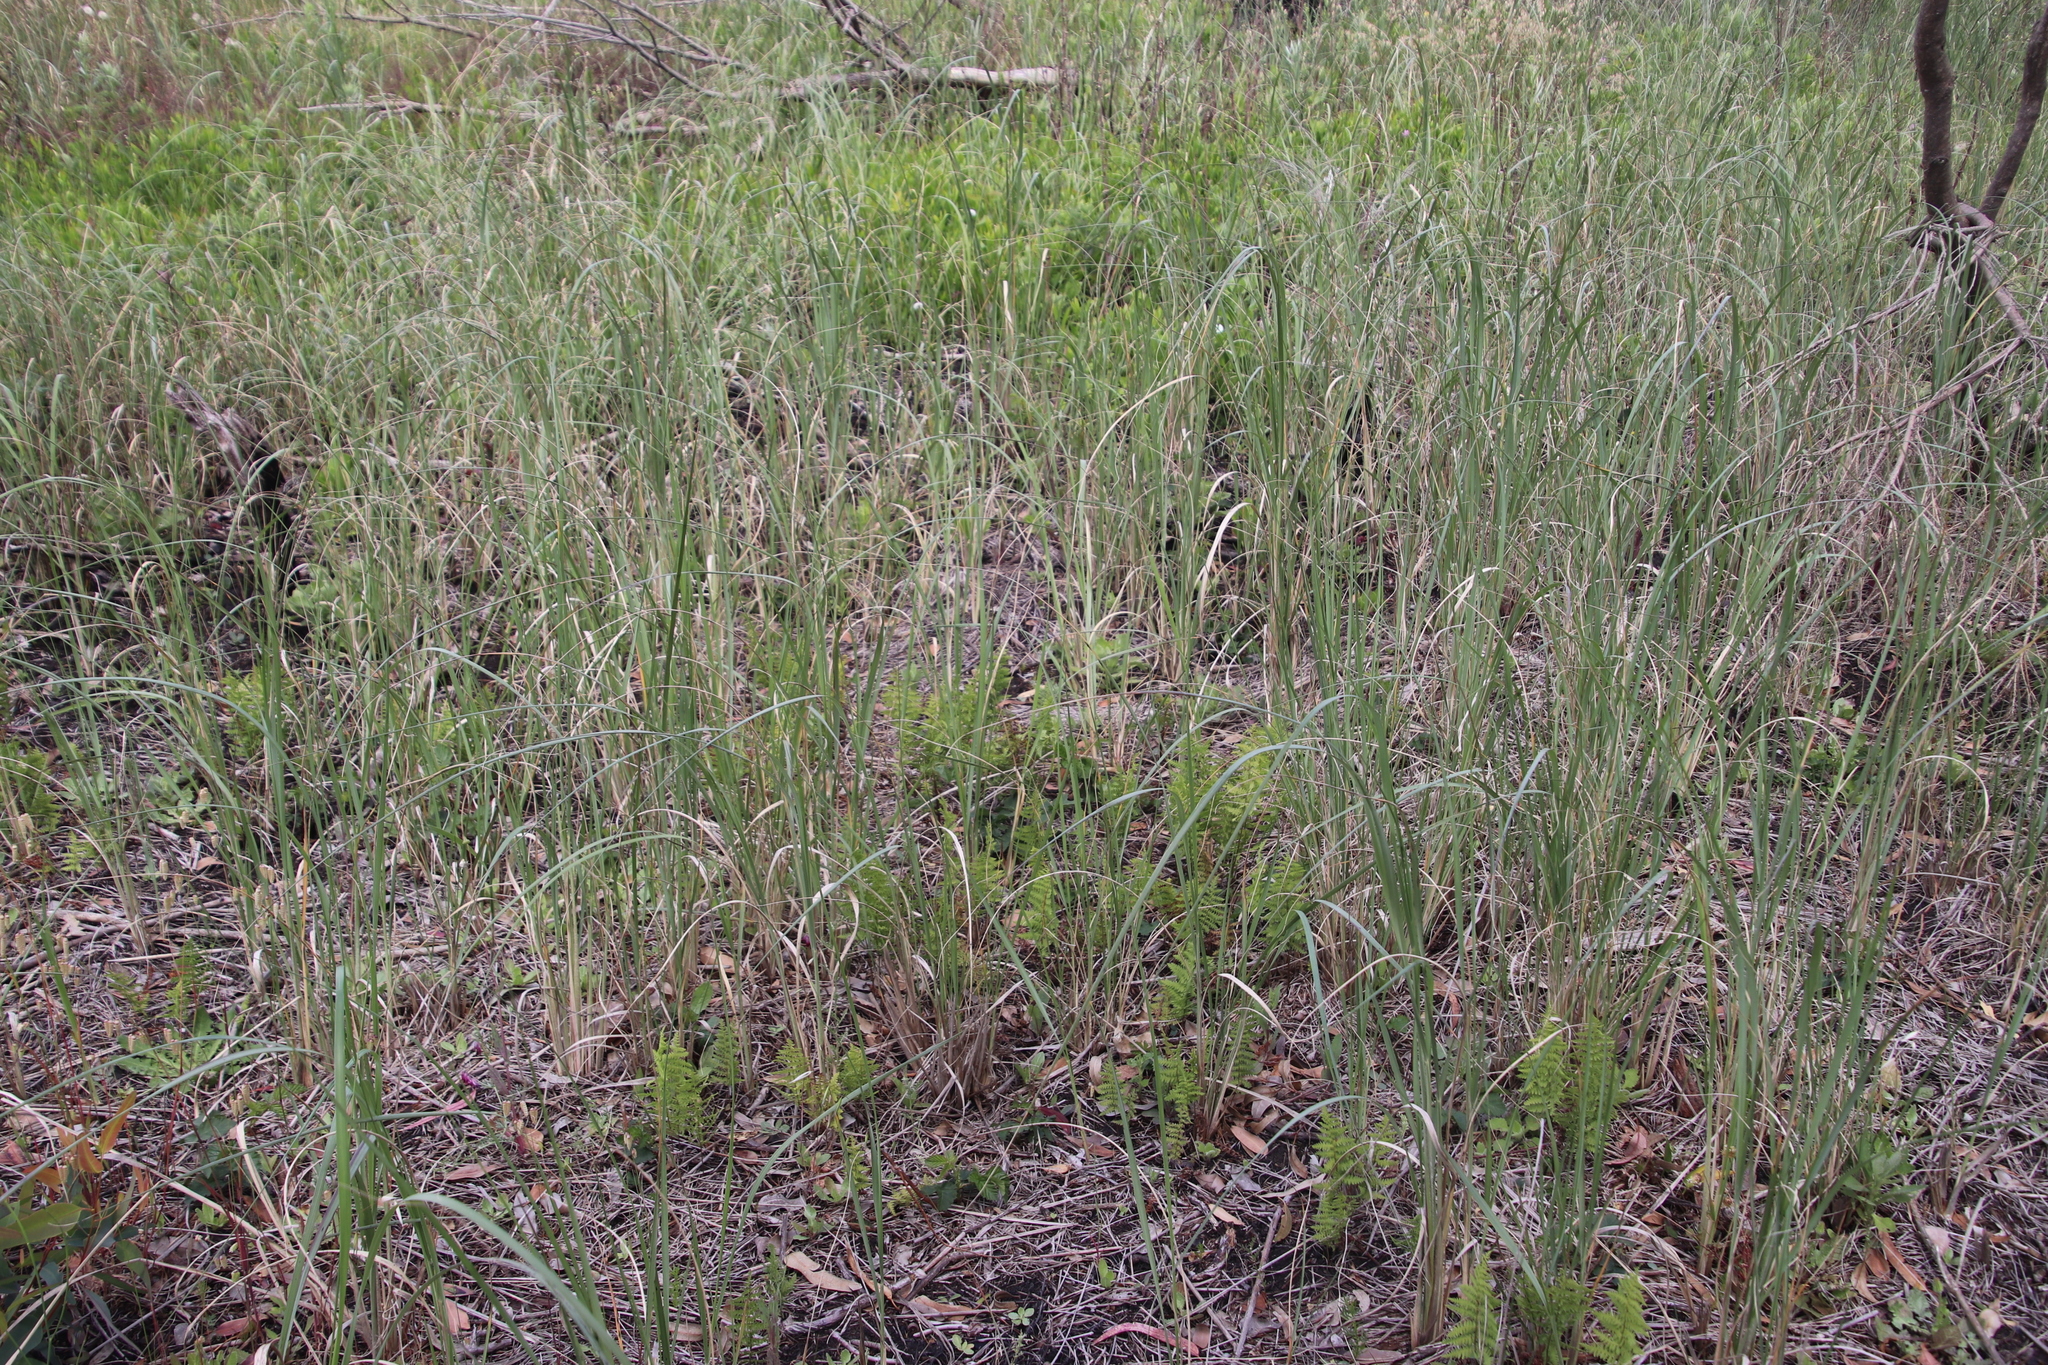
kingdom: Plantae
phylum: Tracheophyta
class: Polypodiopsida
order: Polypodiales
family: Thelypteridaceae
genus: Thelypteris
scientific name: Thelypteris confluens
